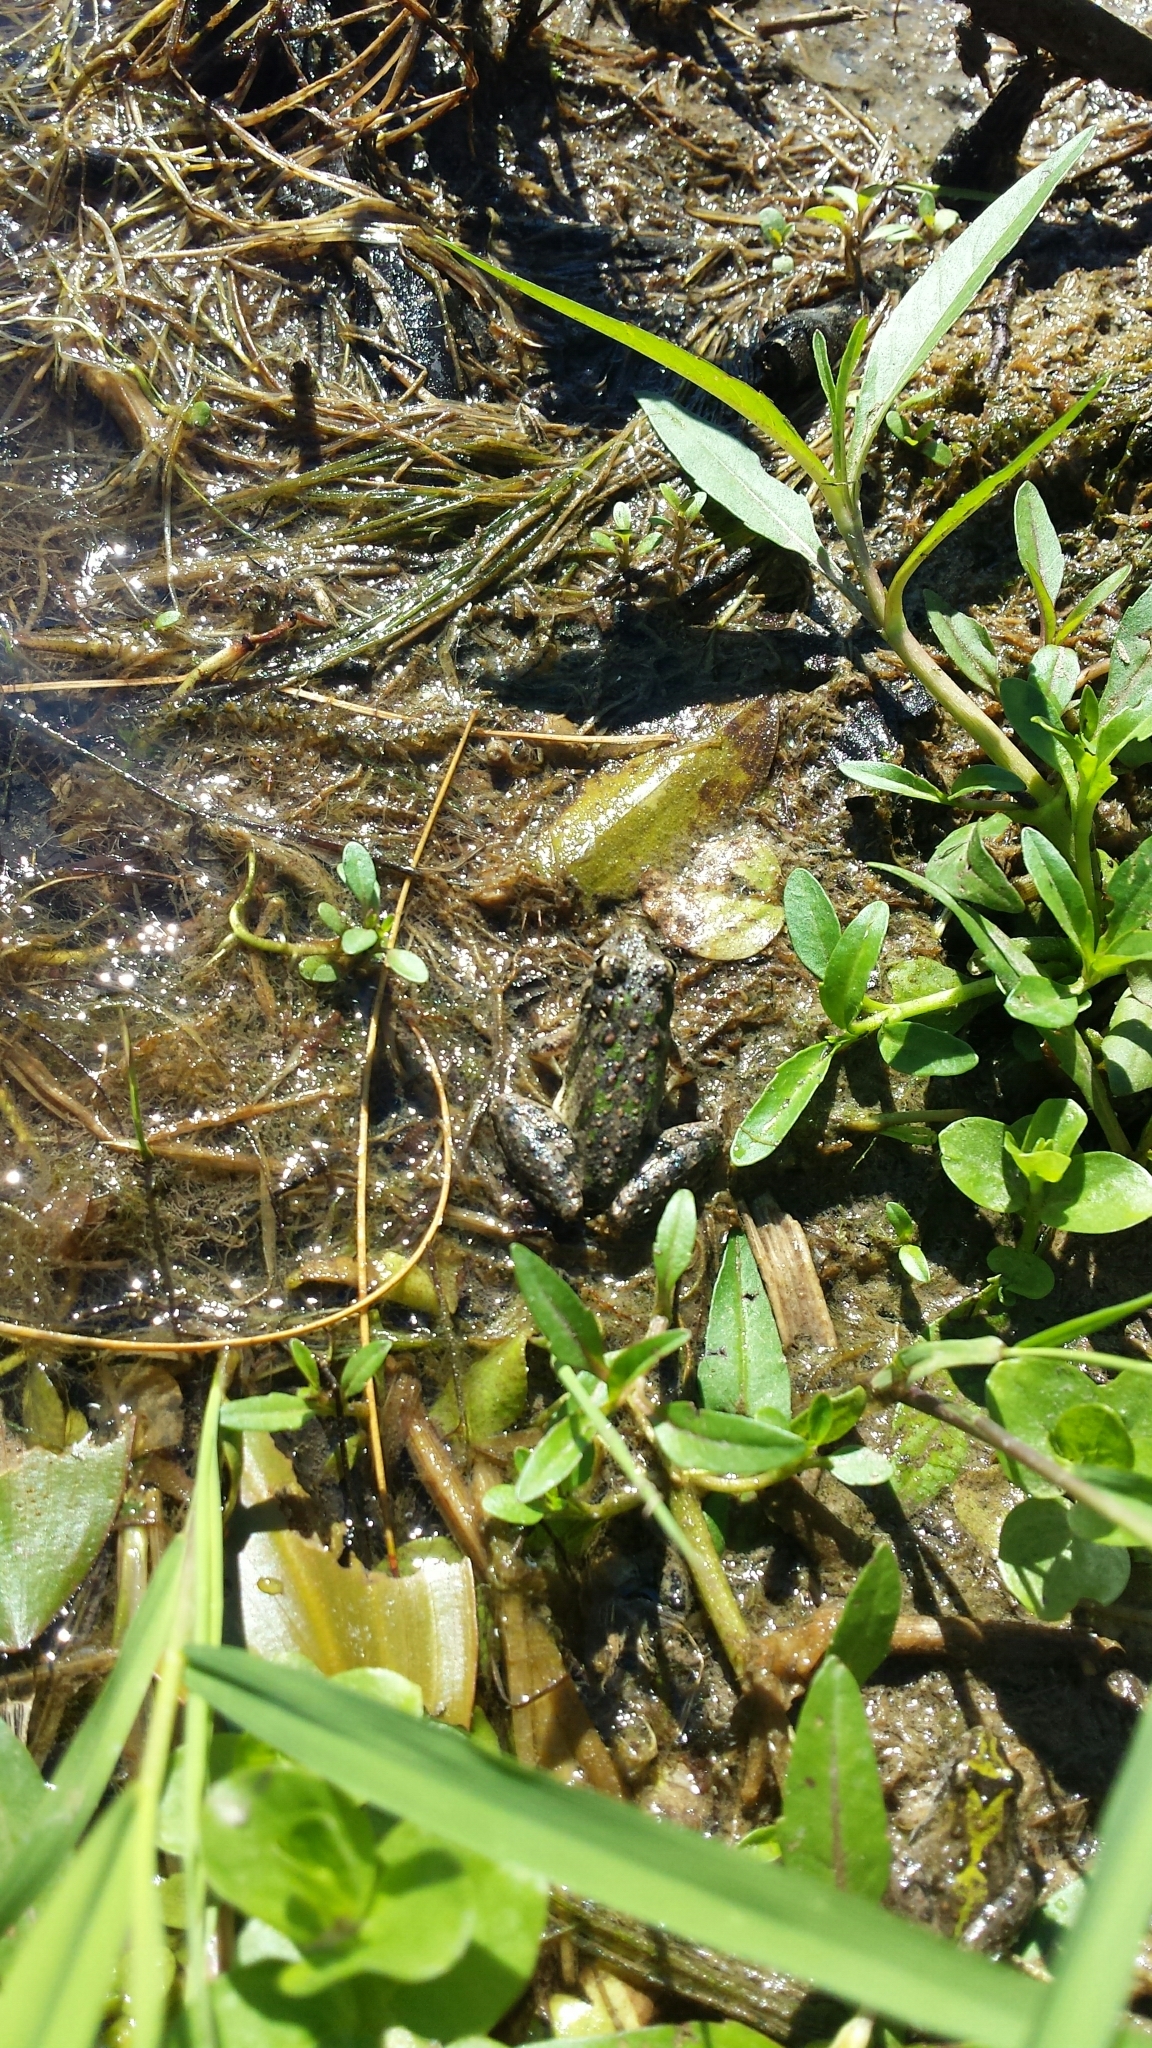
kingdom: Animalia
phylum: Chordata
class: Amphibia
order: Anura
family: Hylidae
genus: Acris
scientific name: Acris blanchardi
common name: Blanchard's cricket frog
